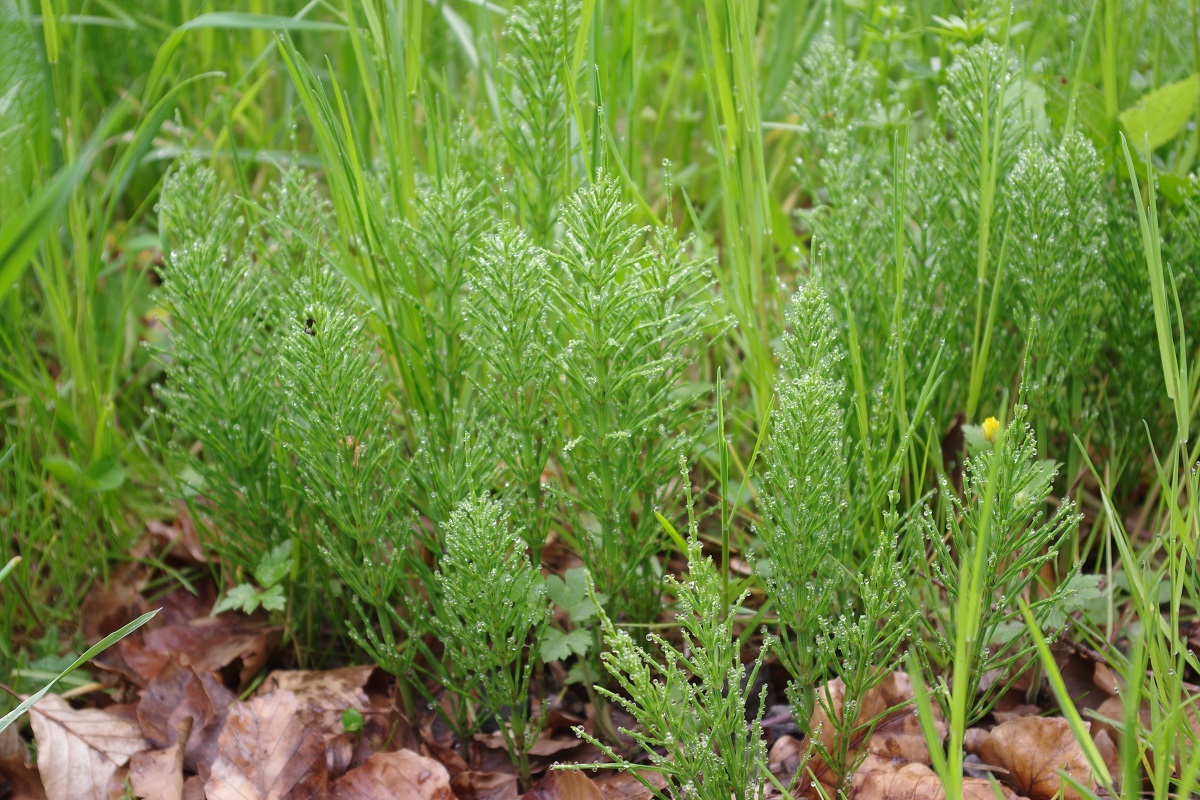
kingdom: Plantae
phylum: Tracheophyta
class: Polypodiopsida
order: Equisetales
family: Equisetaceae
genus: Equisetum
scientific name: Equisetum arvense
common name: Field horsetail
